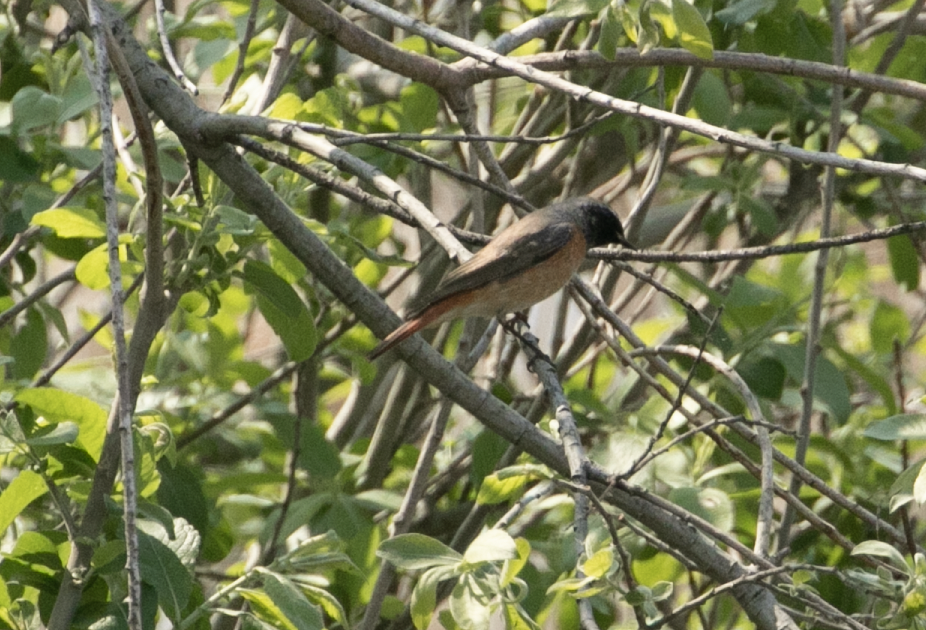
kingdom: Animalia
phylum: Chordata
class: Aves
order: Passeriformes
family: Muscicapidae
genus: Phoenicurus
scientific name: Phoenicurus phoenicurus
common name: Common redstart
